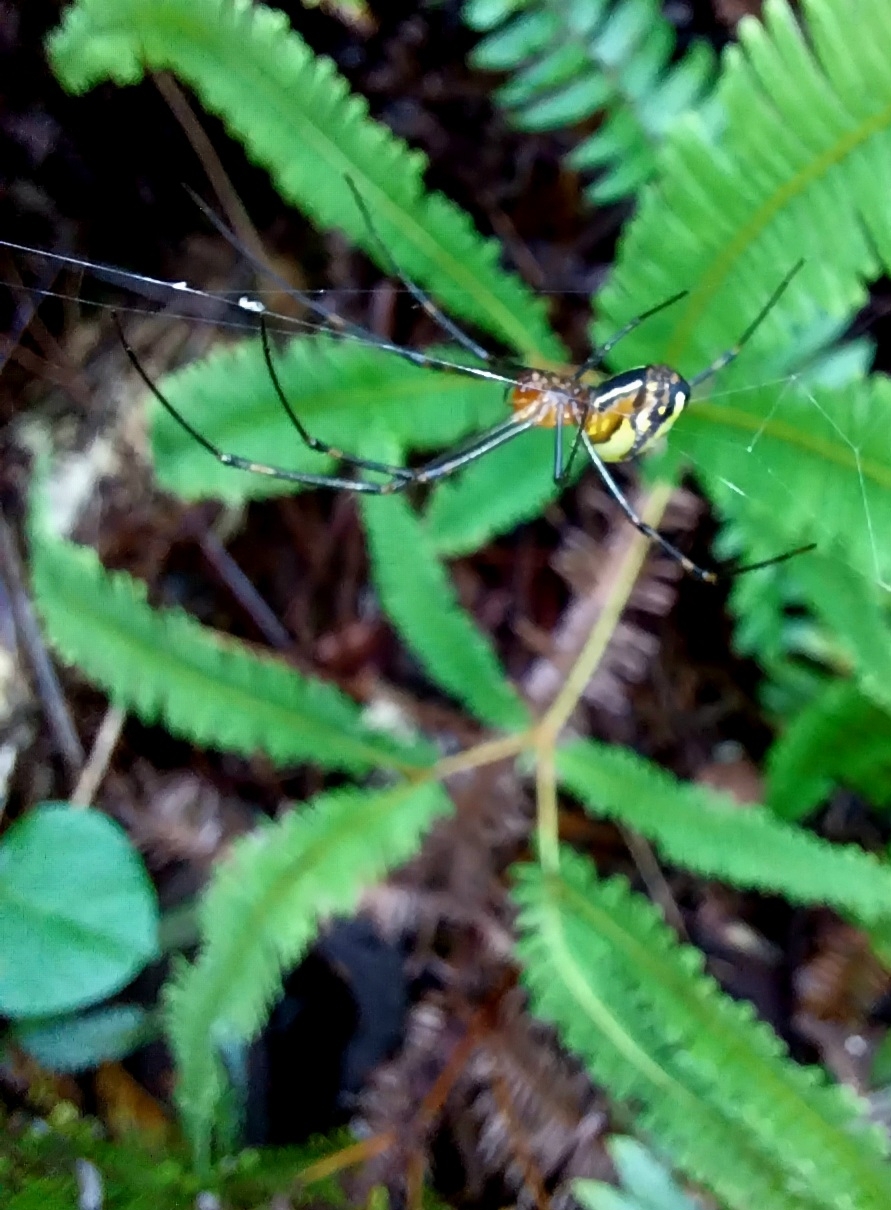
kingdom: Animalia
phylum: Arthropoda
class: Arachnida
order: Araneae
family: Tetragnathidae
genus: Leucauge
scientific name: Leucauge granulata
